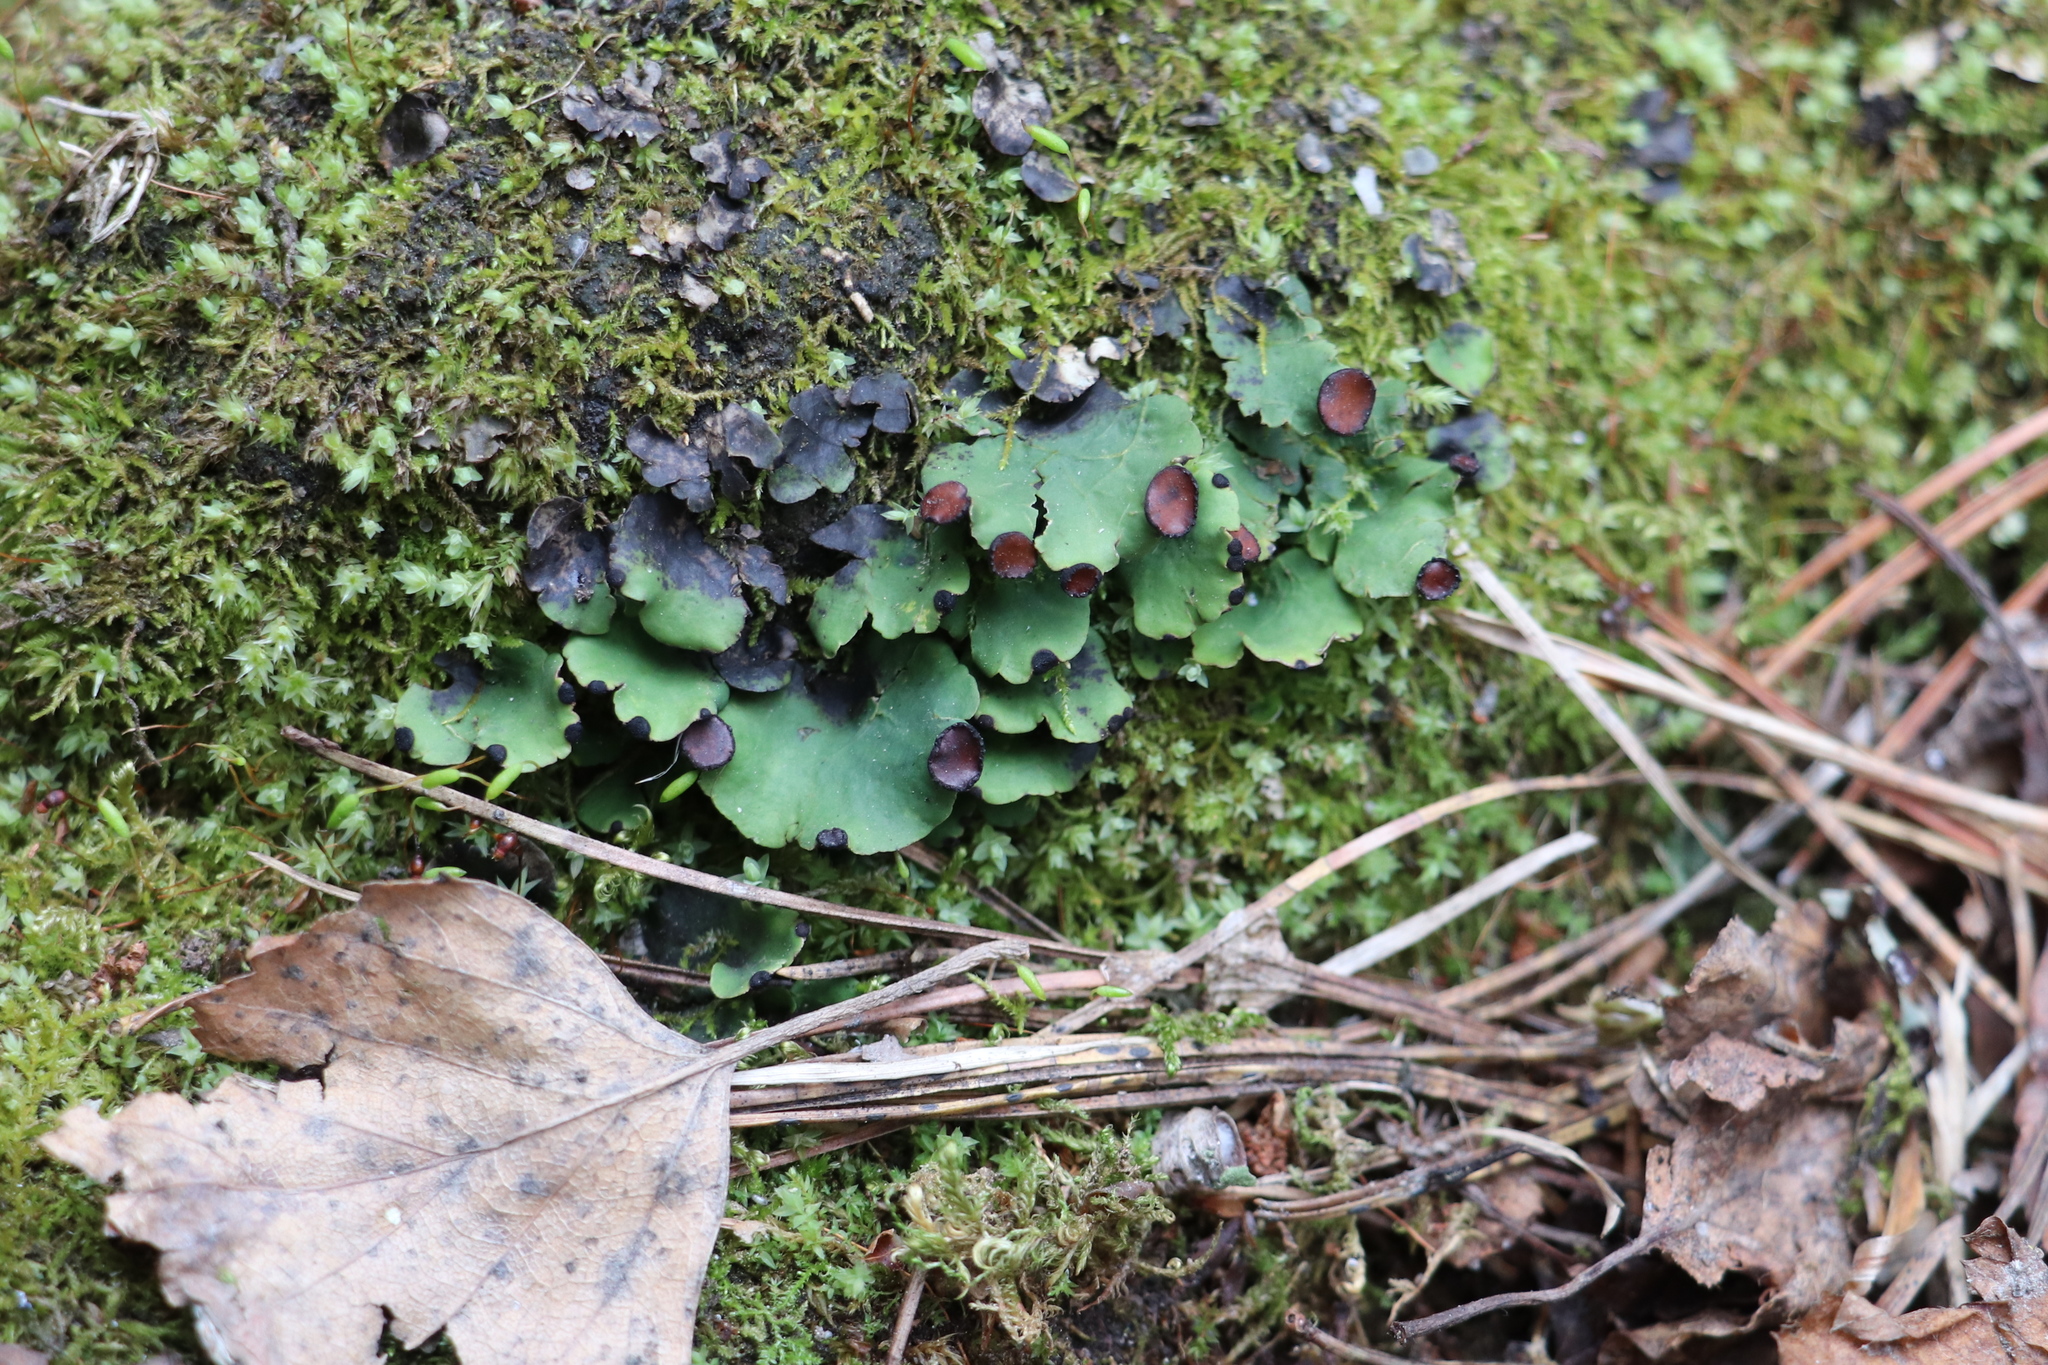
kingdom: Fungi
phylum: Ascomycota
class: Lecanoromycetes
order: Peltigerales
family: Peltigeraceae
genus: Peltigera
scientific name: Peltigera venosa
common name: Pixie gowns lichen
